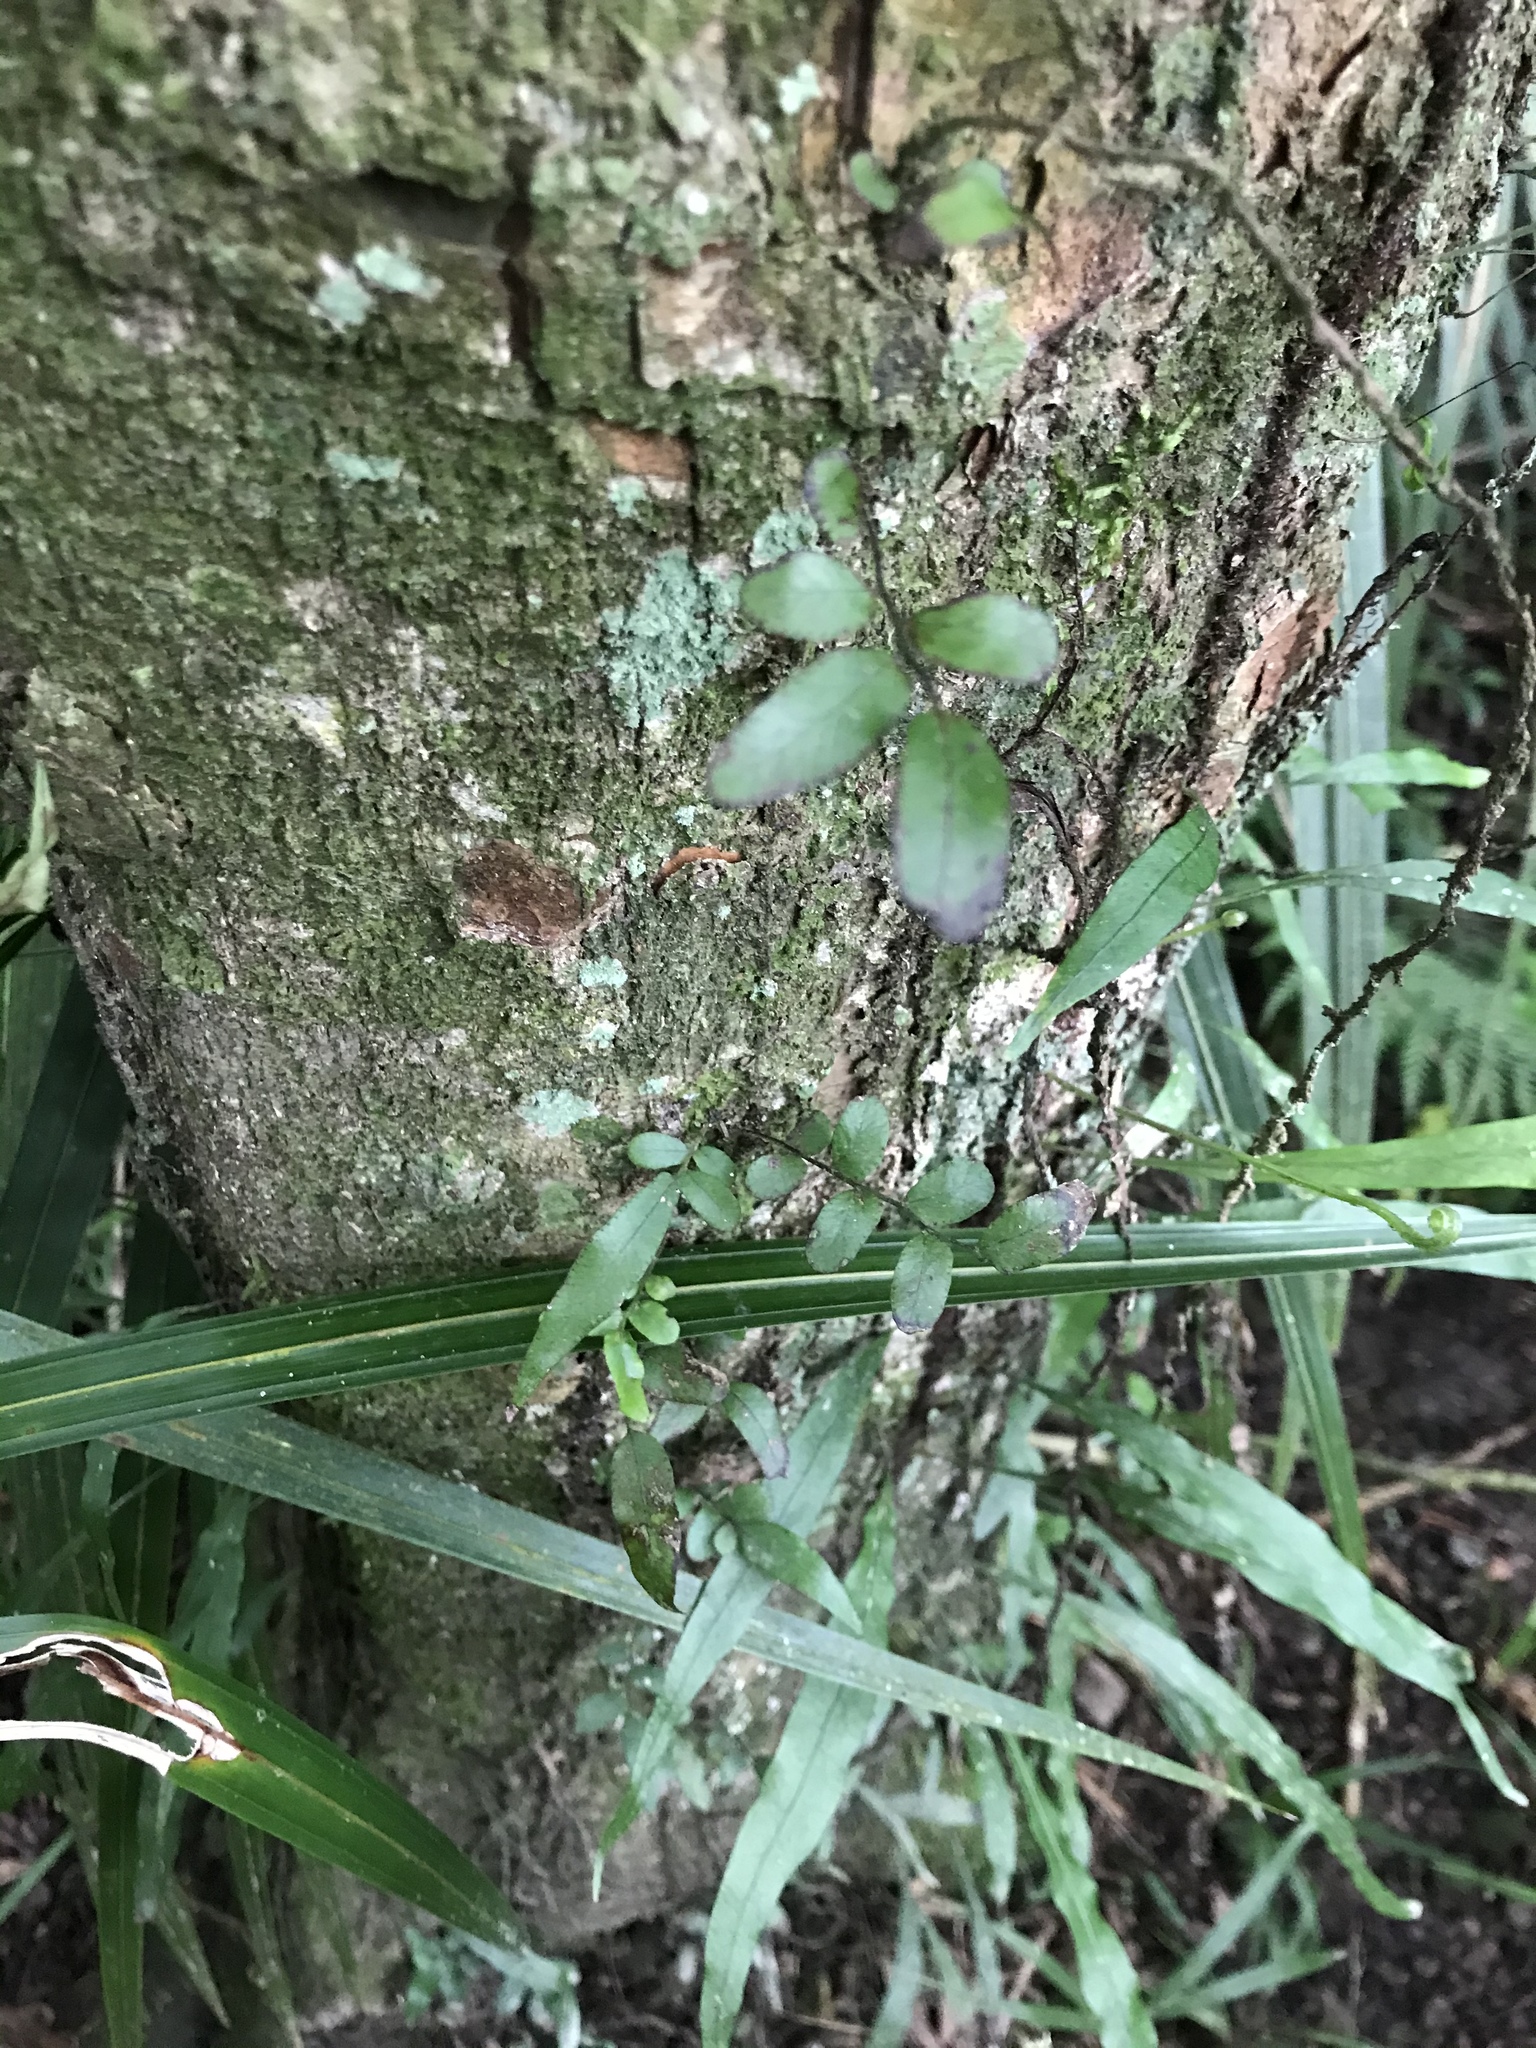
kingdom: Plantae
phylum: Tracheophyta
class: Polypodiopsida
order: Polypodiales
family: Tectariaceae
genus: Arthropteris
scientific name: Arthropteris tenella
